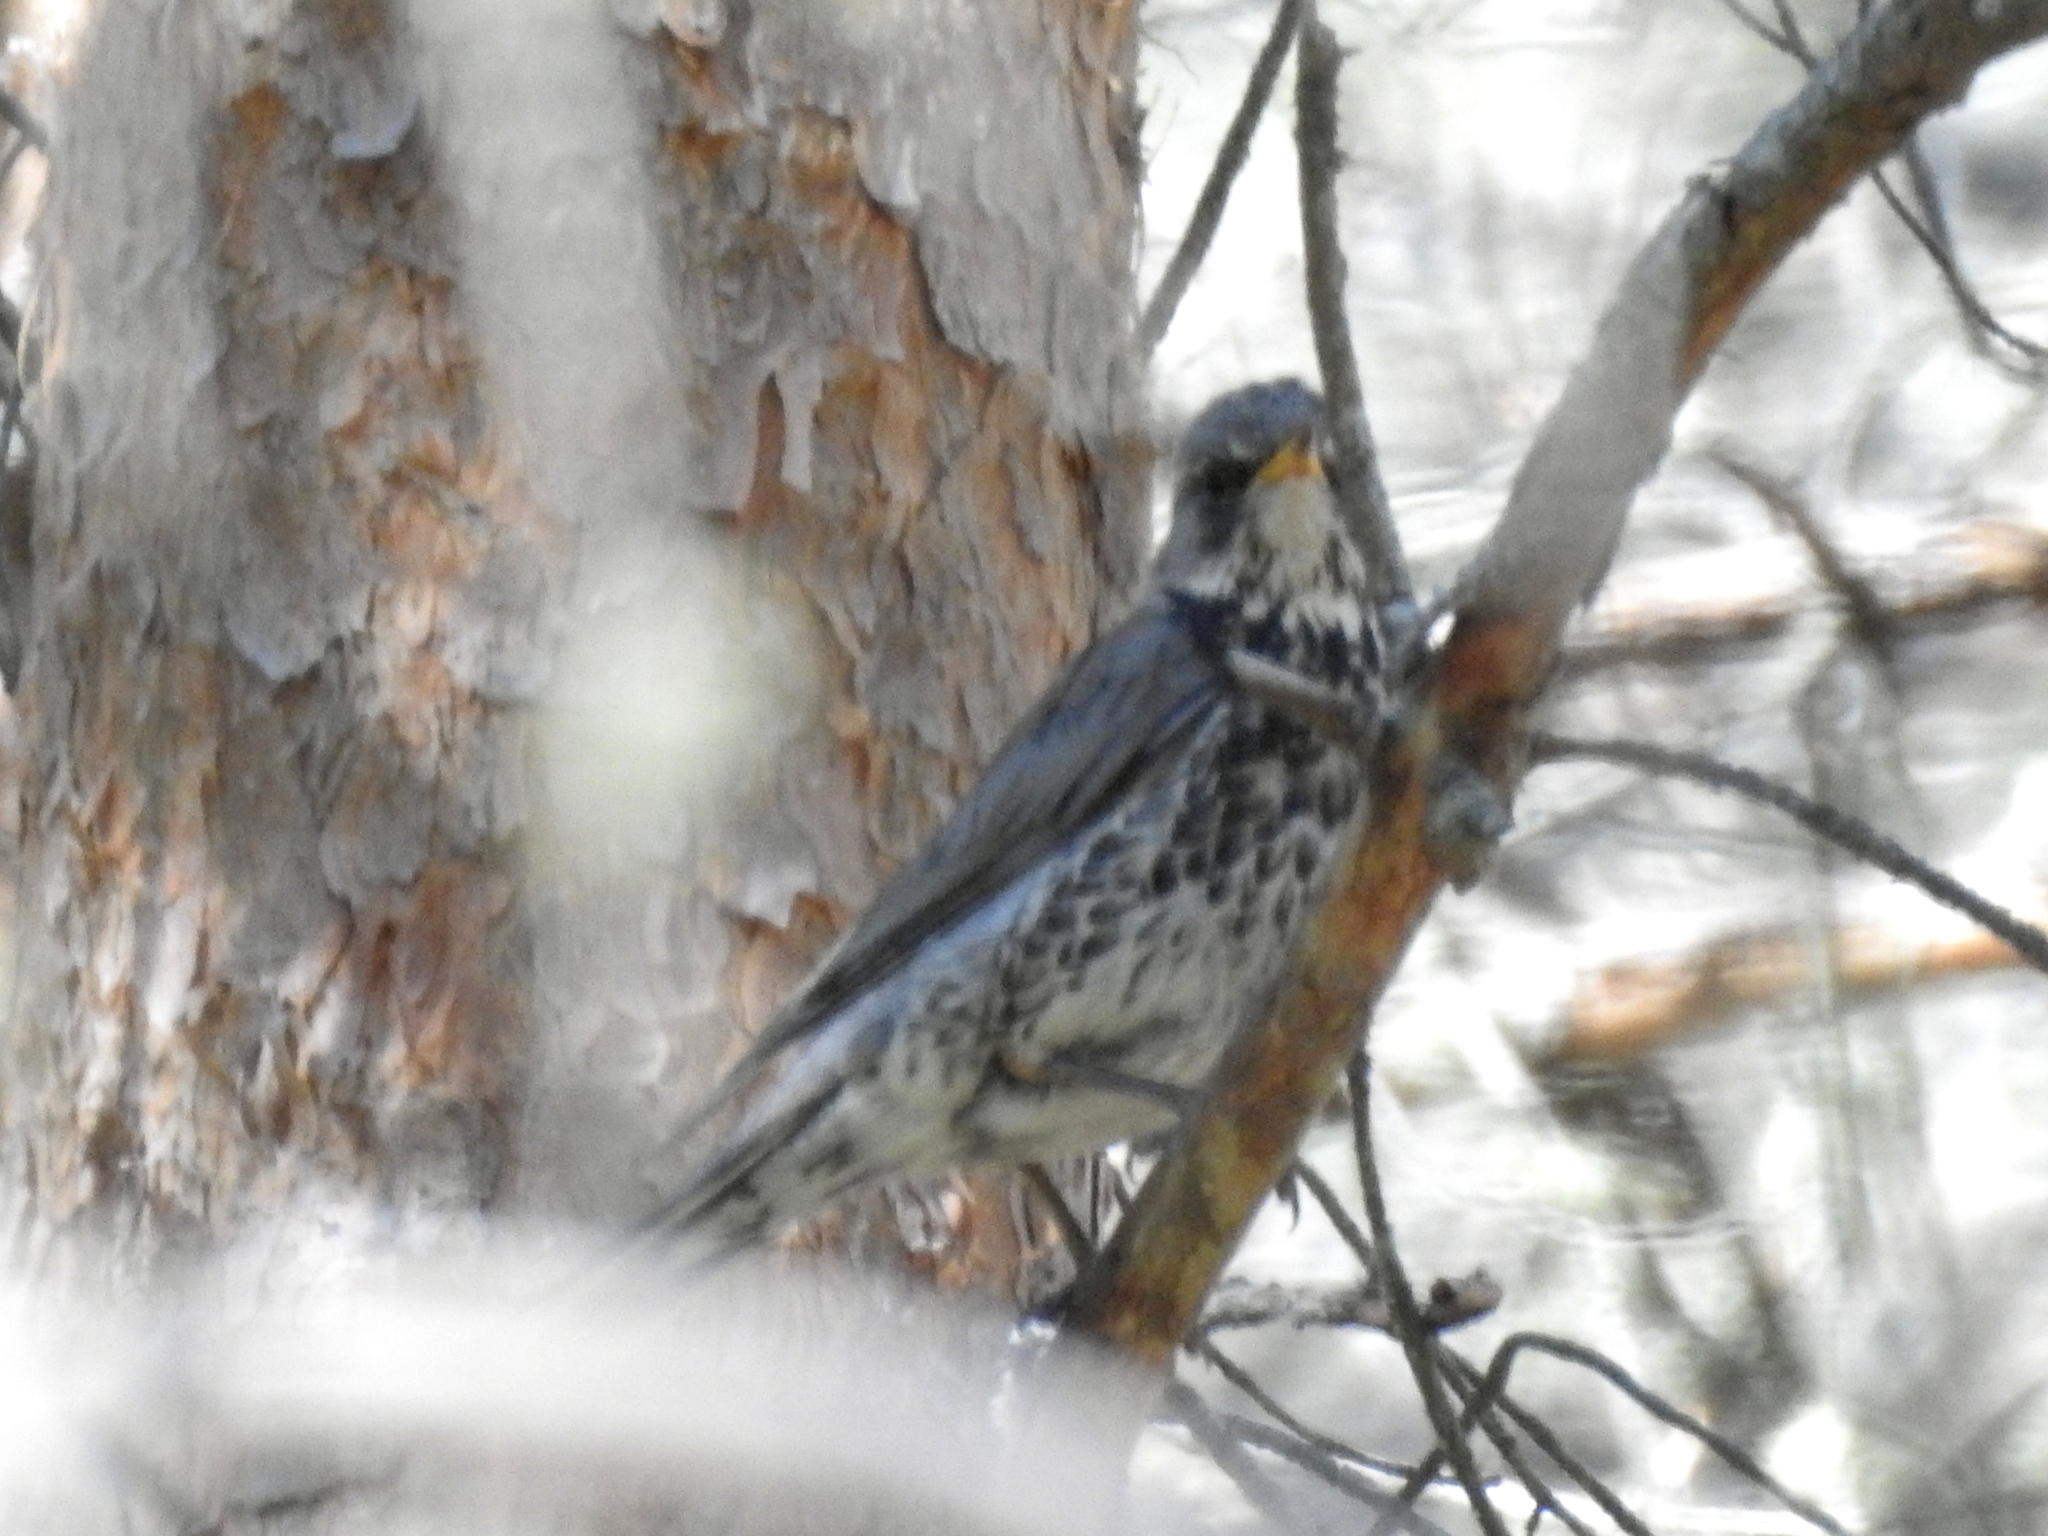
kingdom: Animalia
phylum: Chordata
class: Aves
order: Passeriformes
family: Turdidae
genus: Turdus
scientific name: Turdus pilaris
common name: Fieldfare
